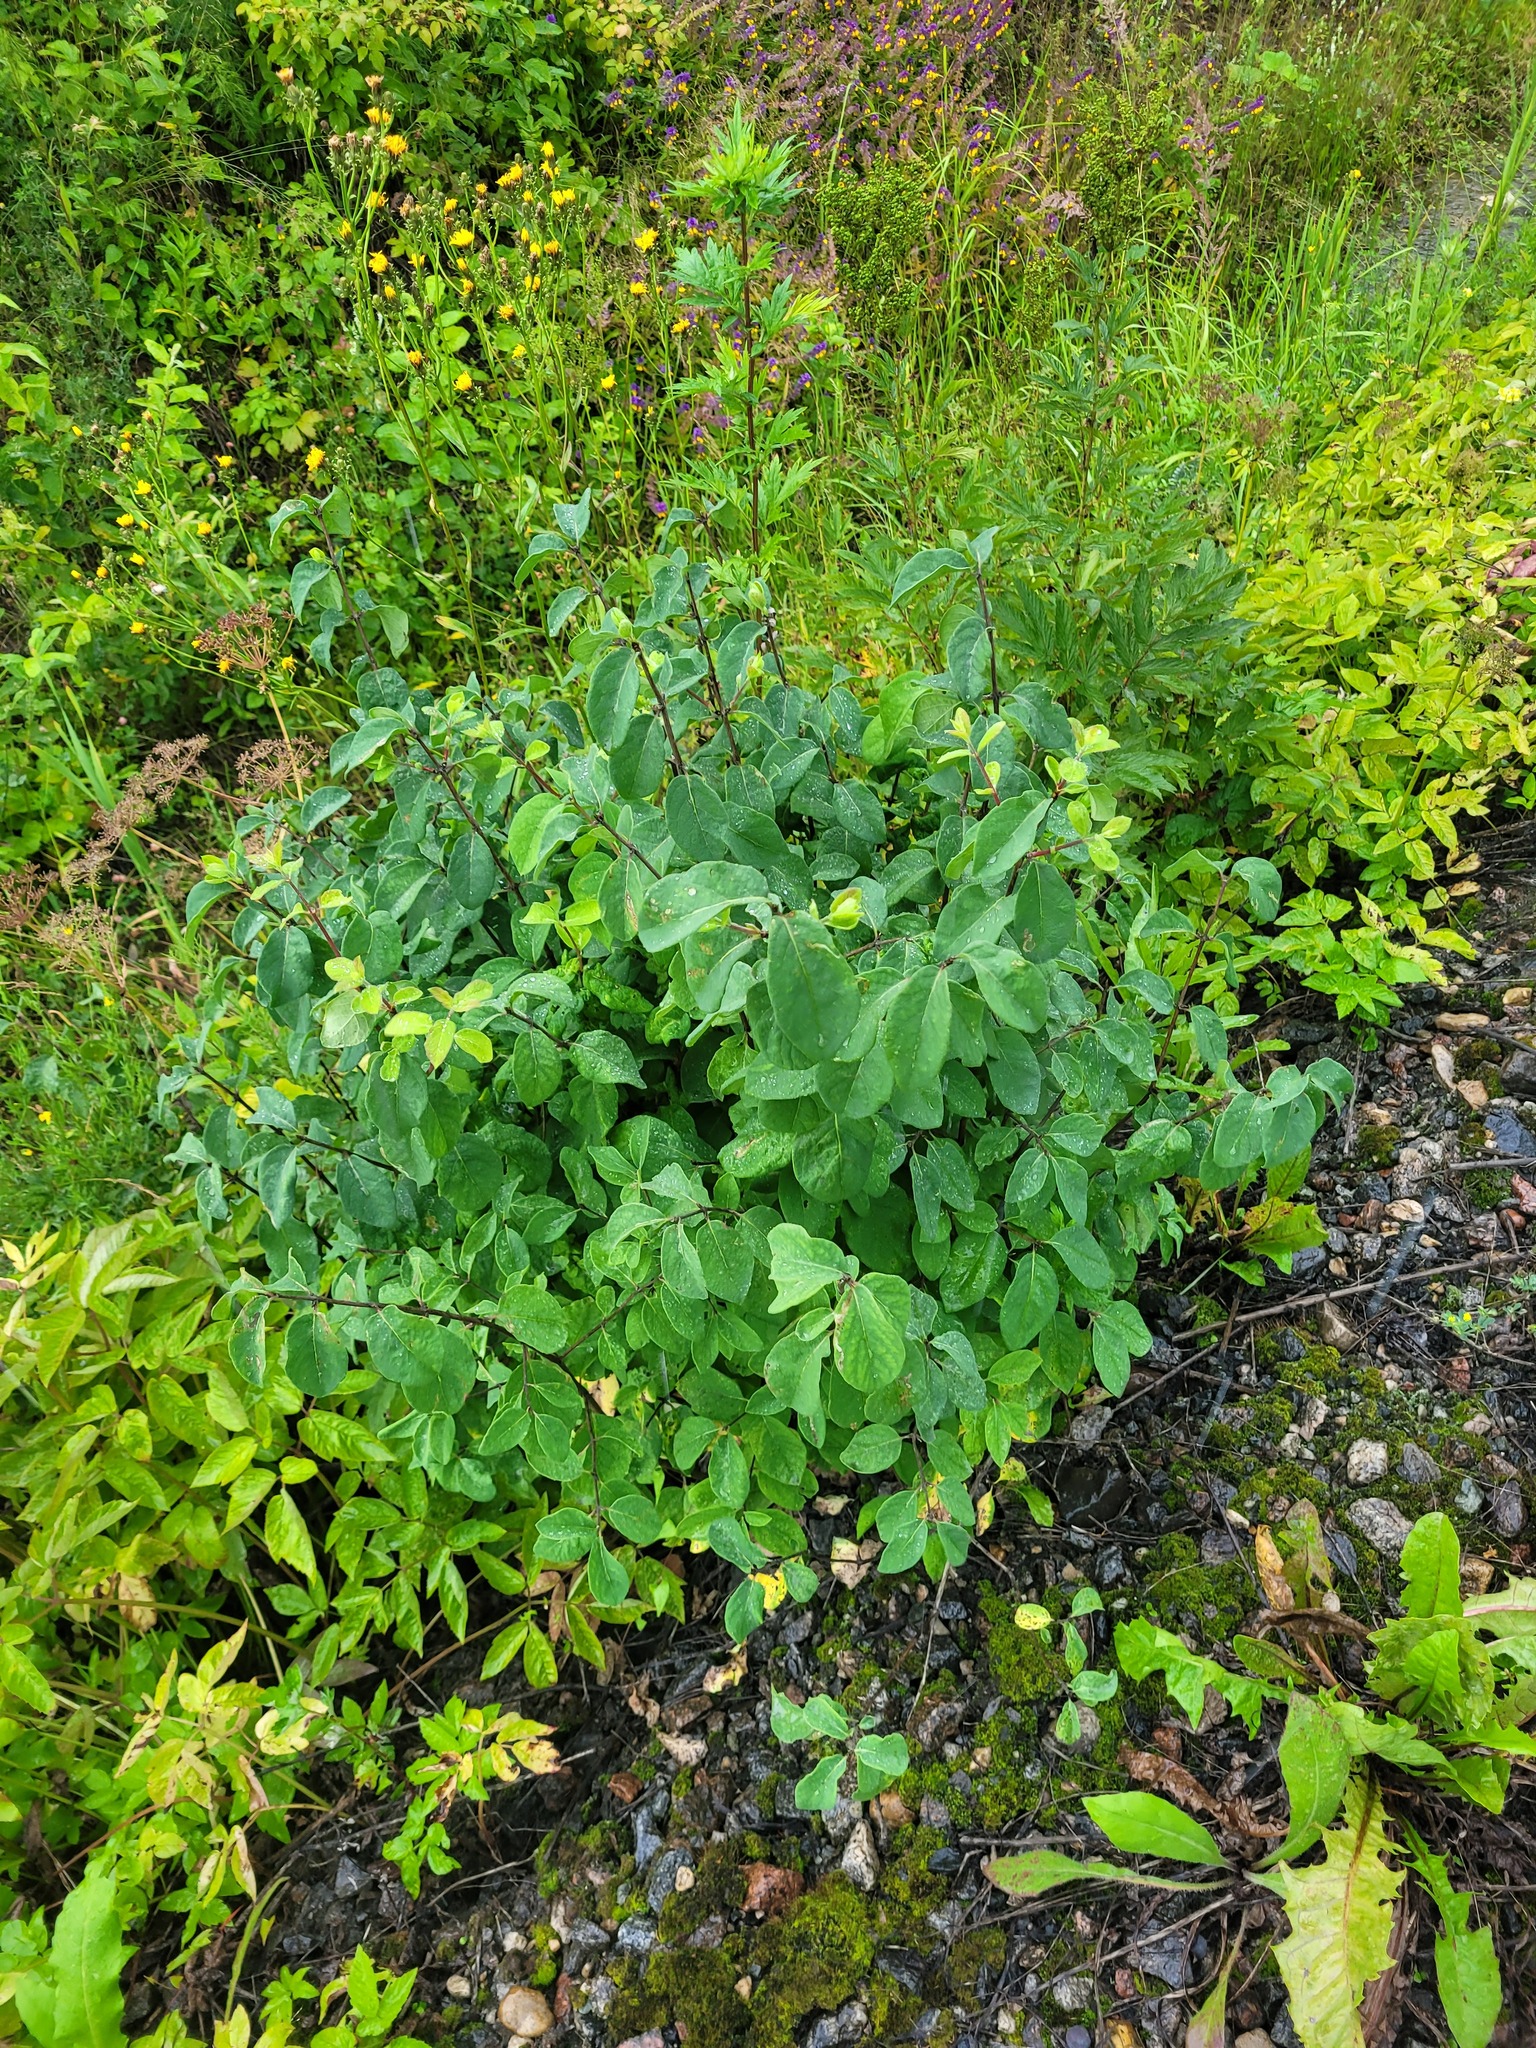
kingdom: Plantae
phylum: Tracheophyta
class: Magnoliopsida
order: Dipsacales
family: Caprifoliaceae
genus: Lonicera
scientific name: Lonicera xylosteum
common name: Fly honeysuckle
